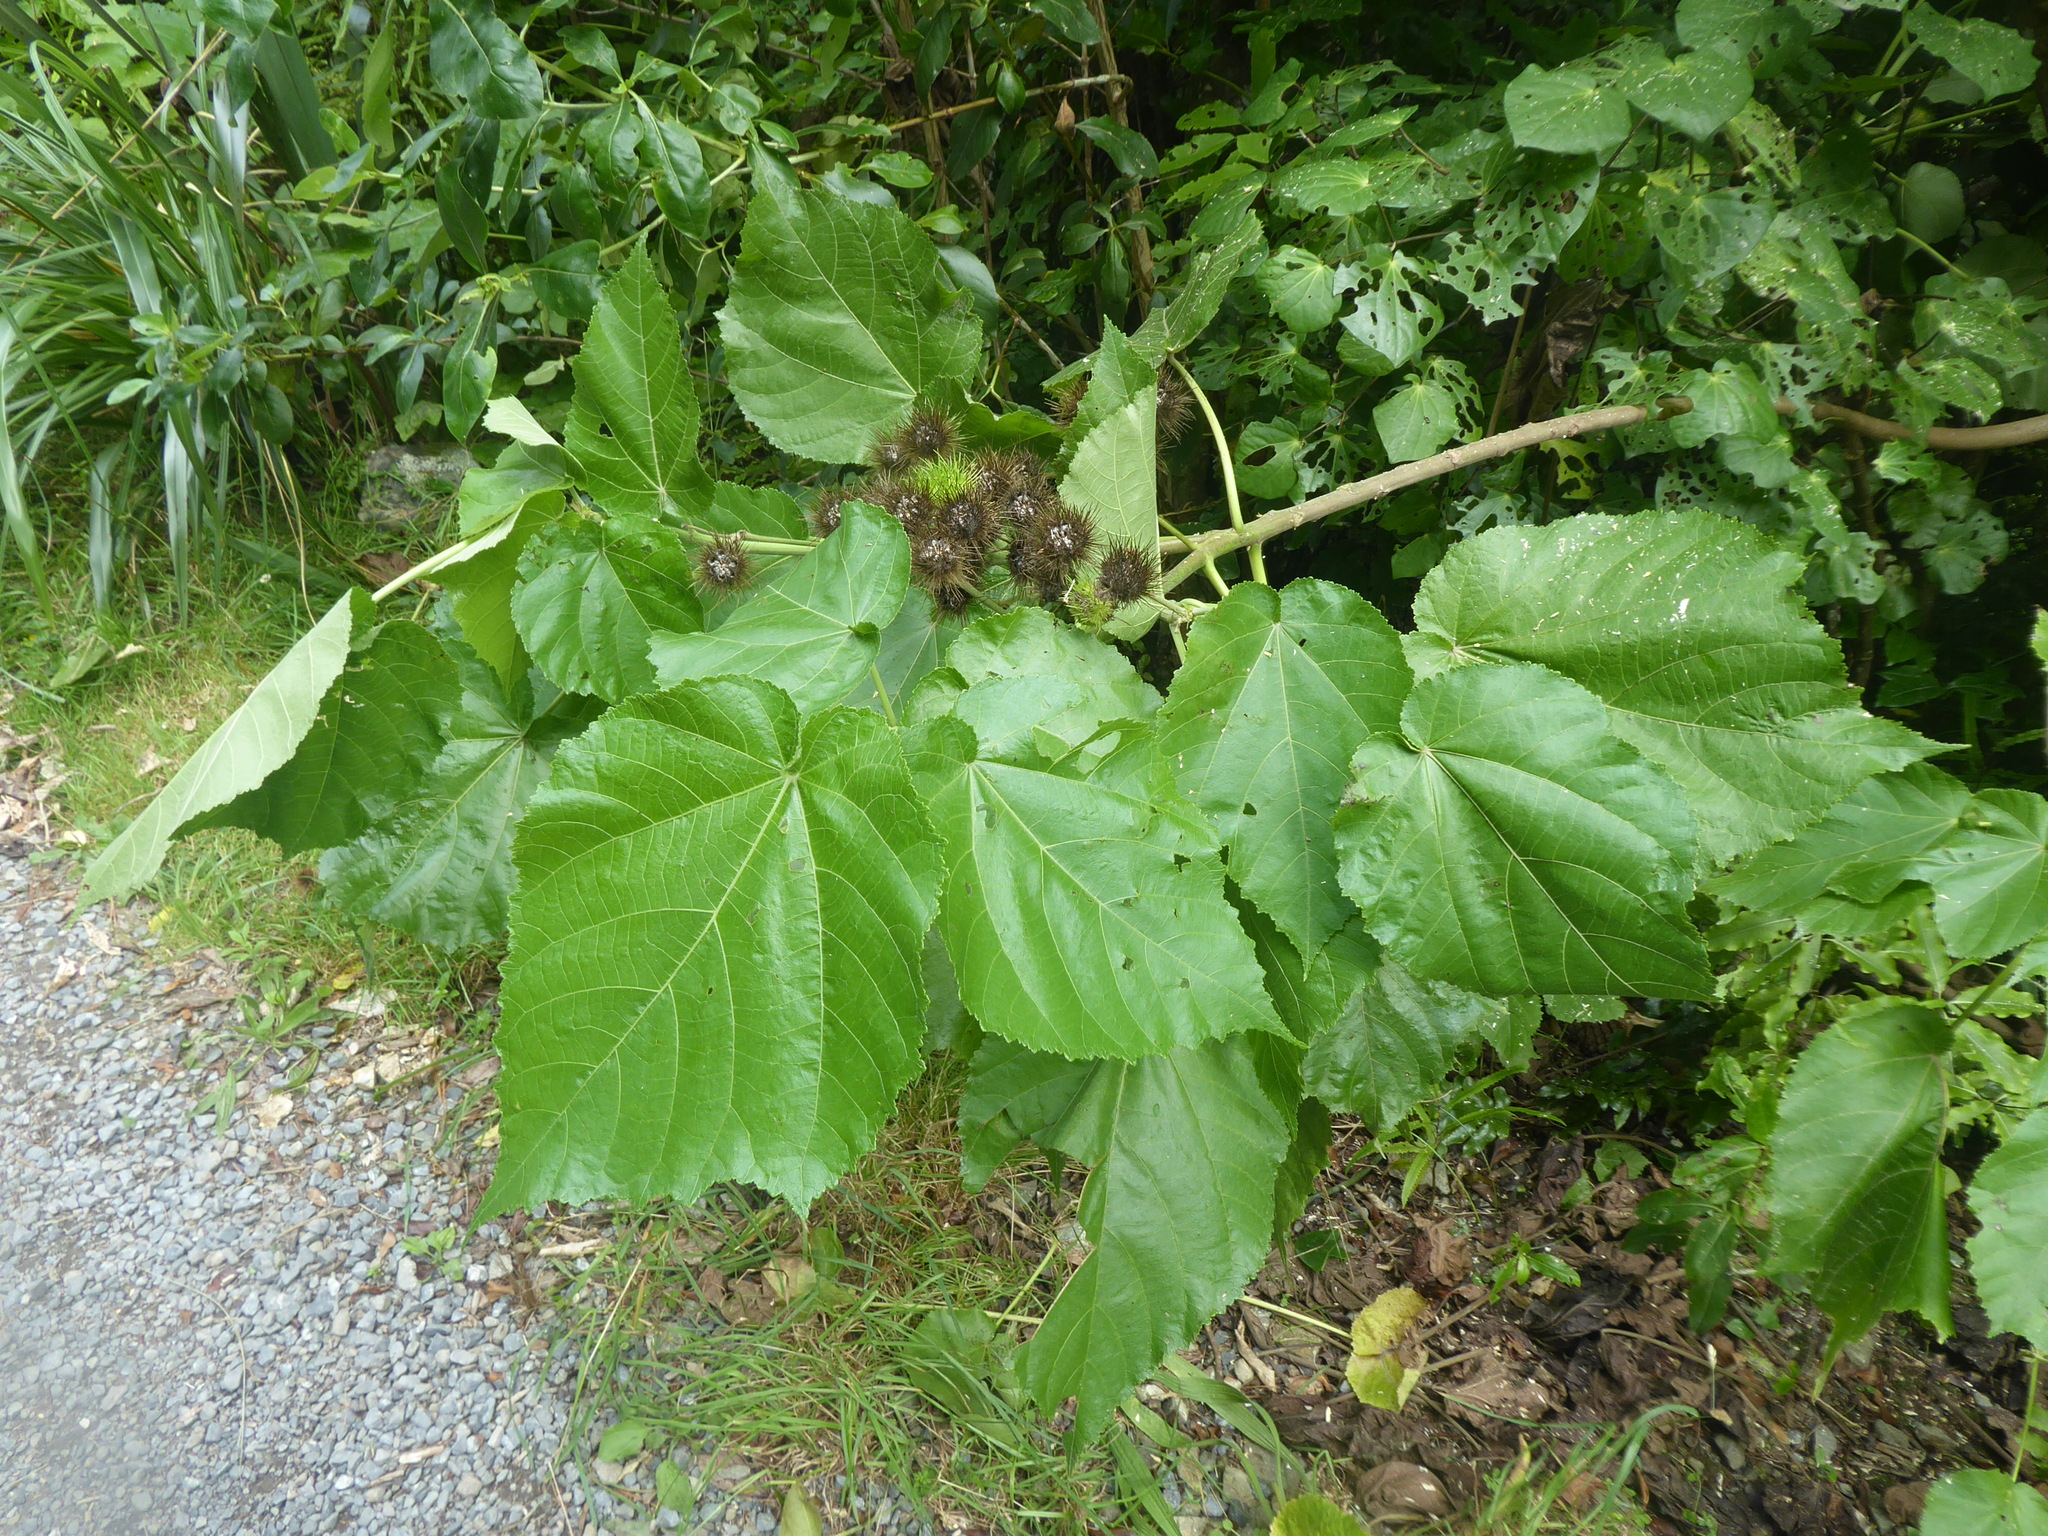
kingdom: Plantae
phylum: Tracheophyta
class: Magnoliopsida
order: Malvales
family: Malvaceae
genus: Entelea
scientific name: Entelea arborescens
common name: New zealand-mulberry
